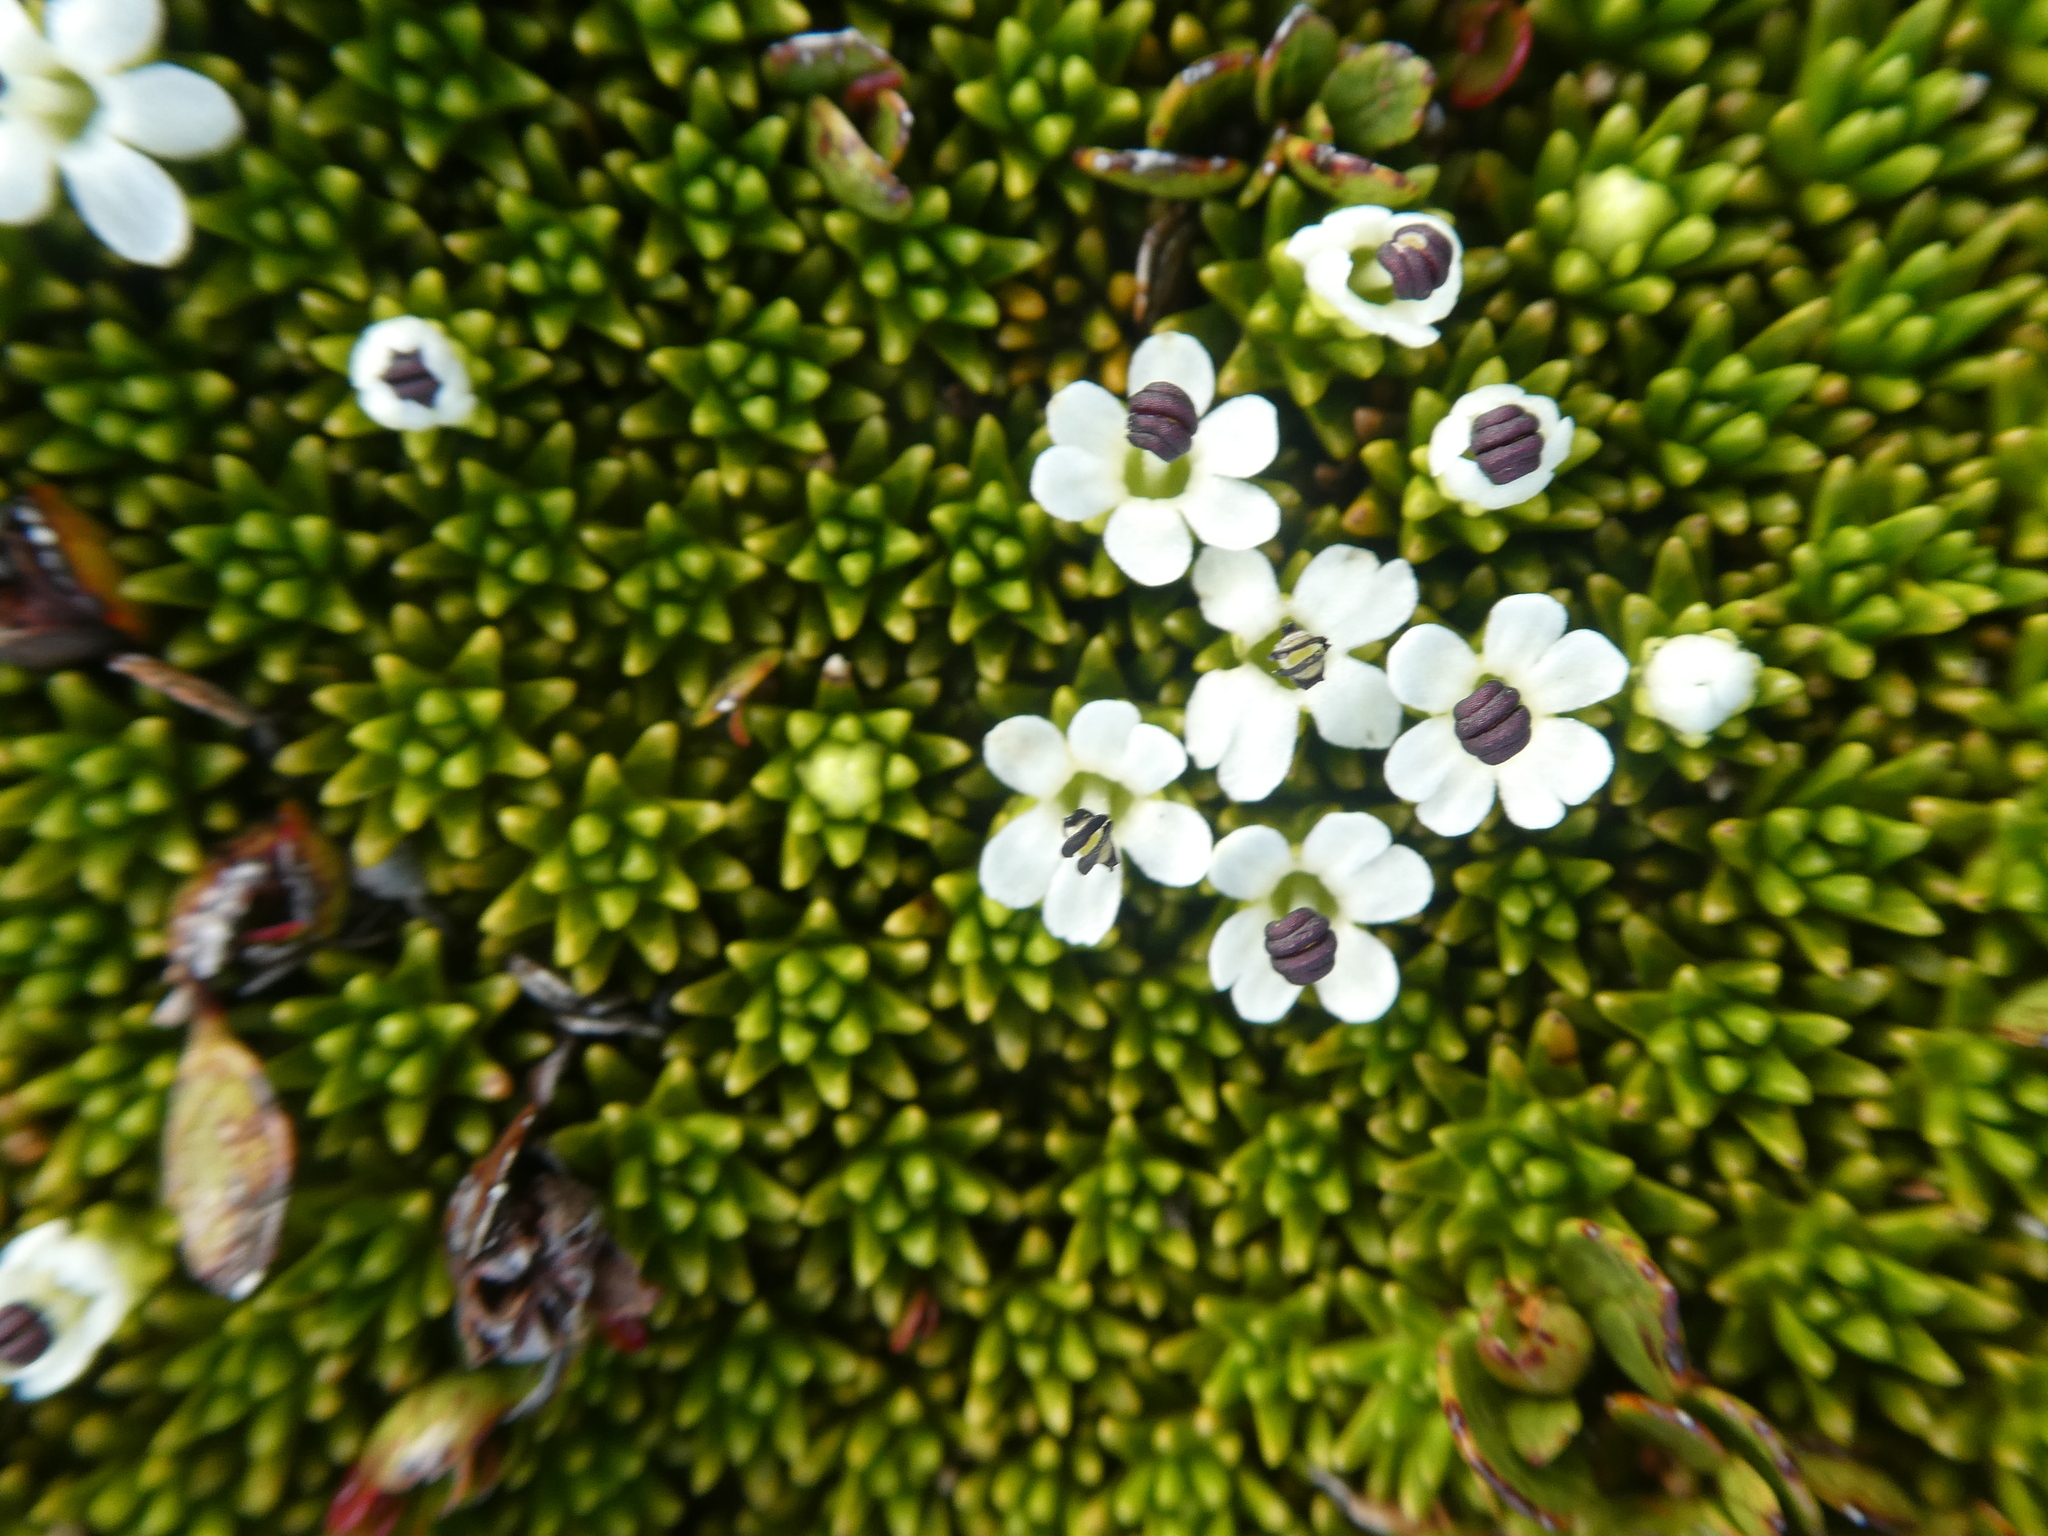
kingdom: Plantae
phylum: Tracheophyta
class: Magnoliopsida
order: Asterales
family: Stylidiaceae
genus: Phyllachne
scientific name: Phyllachne colensoi
